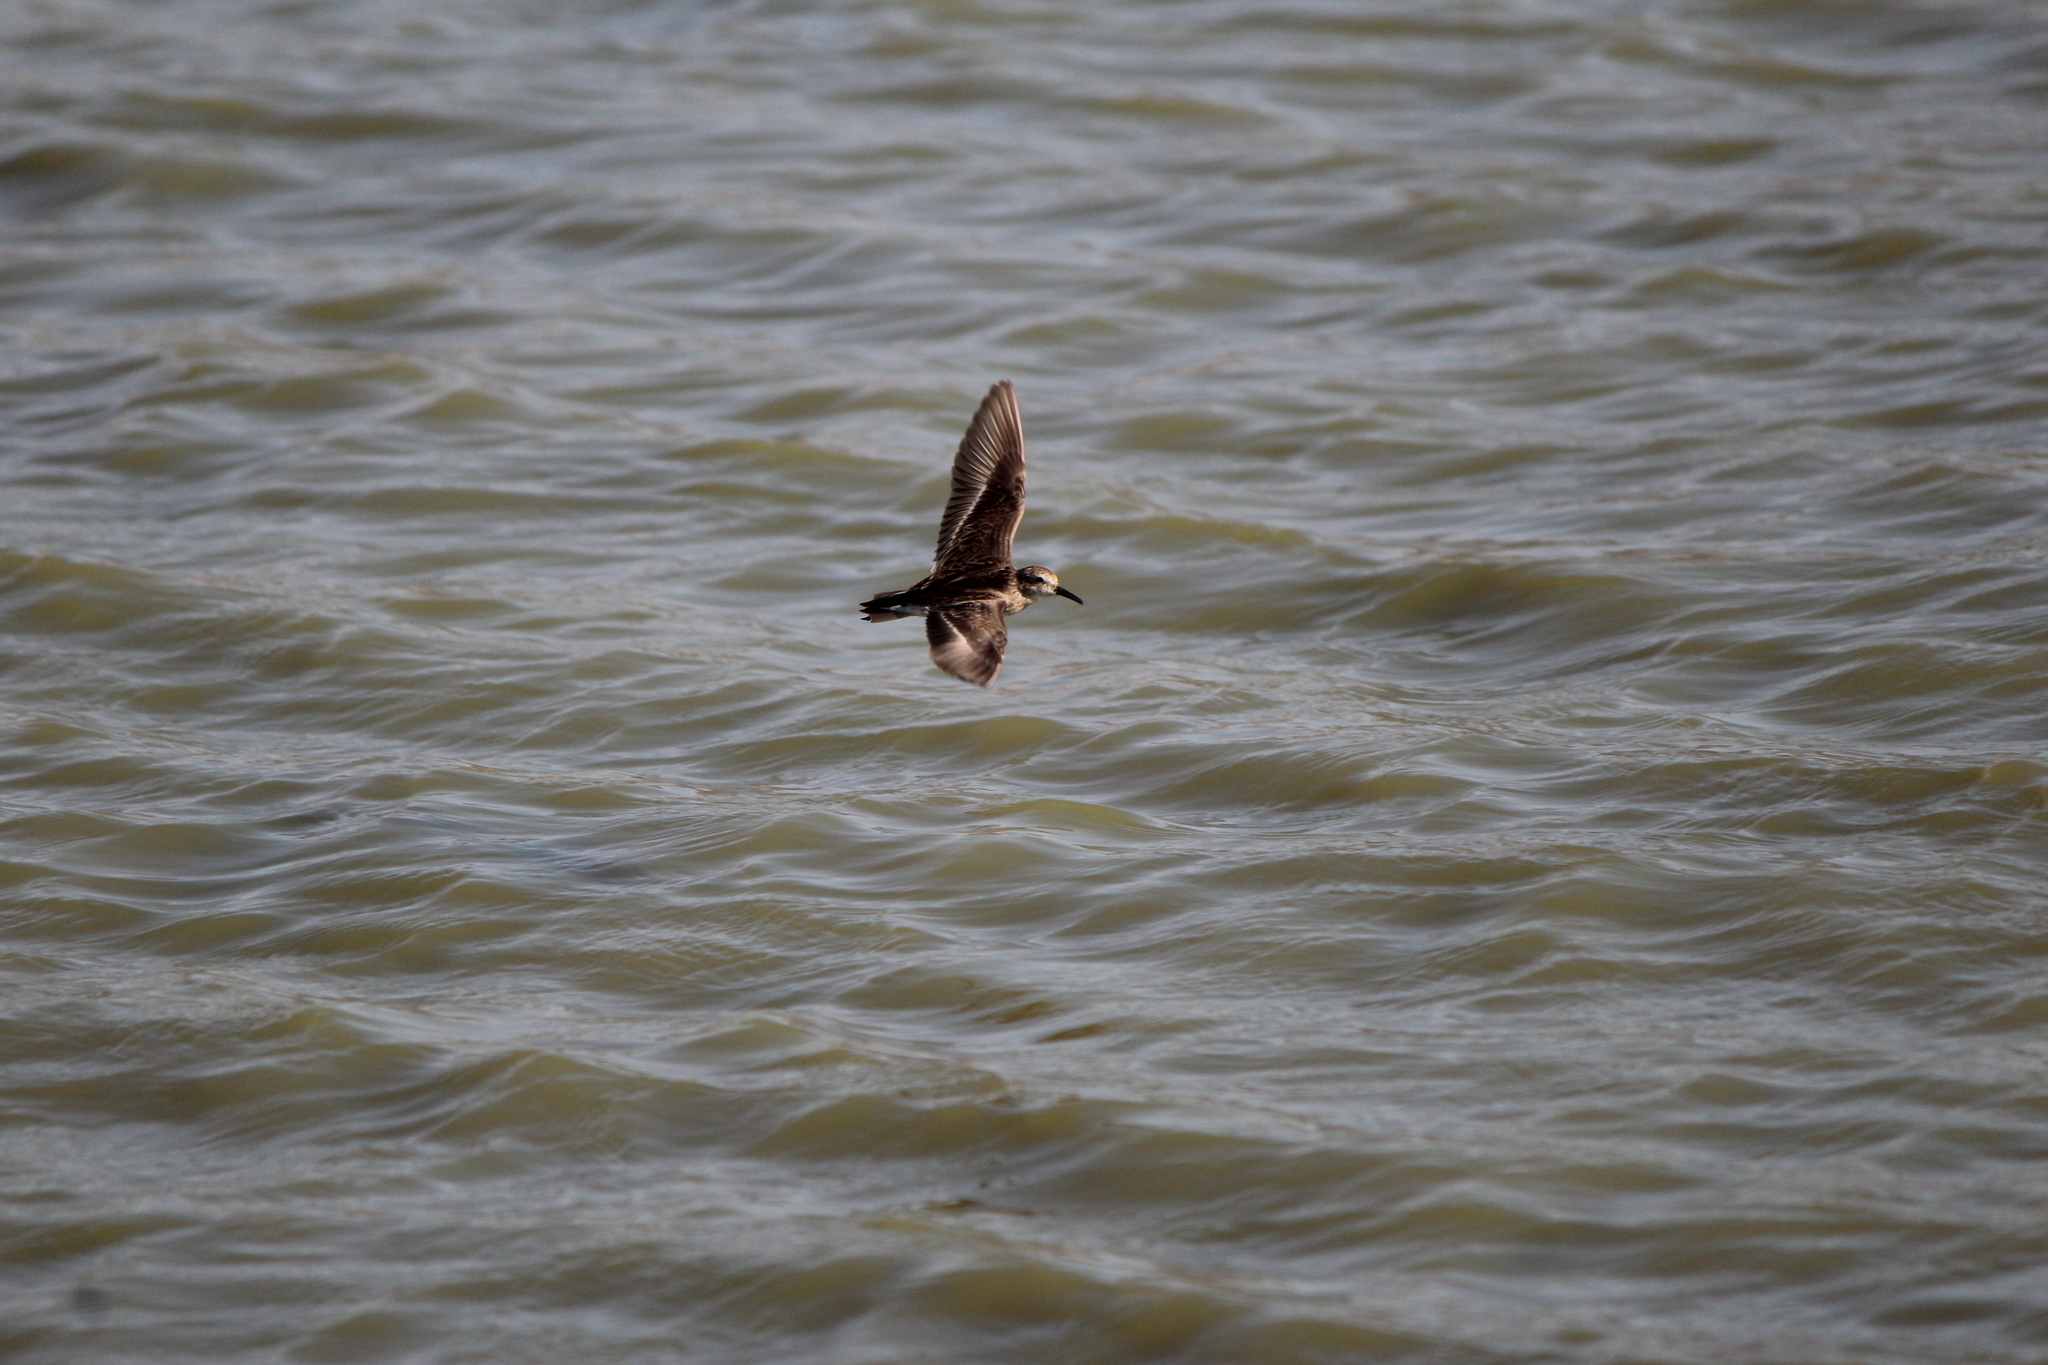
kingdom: Animalia
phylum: Chordata
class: Aves
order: Charadriiformes
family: Scolopacidae
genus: Calidris
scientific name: Calidris minutilla
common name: Least sandpiper
